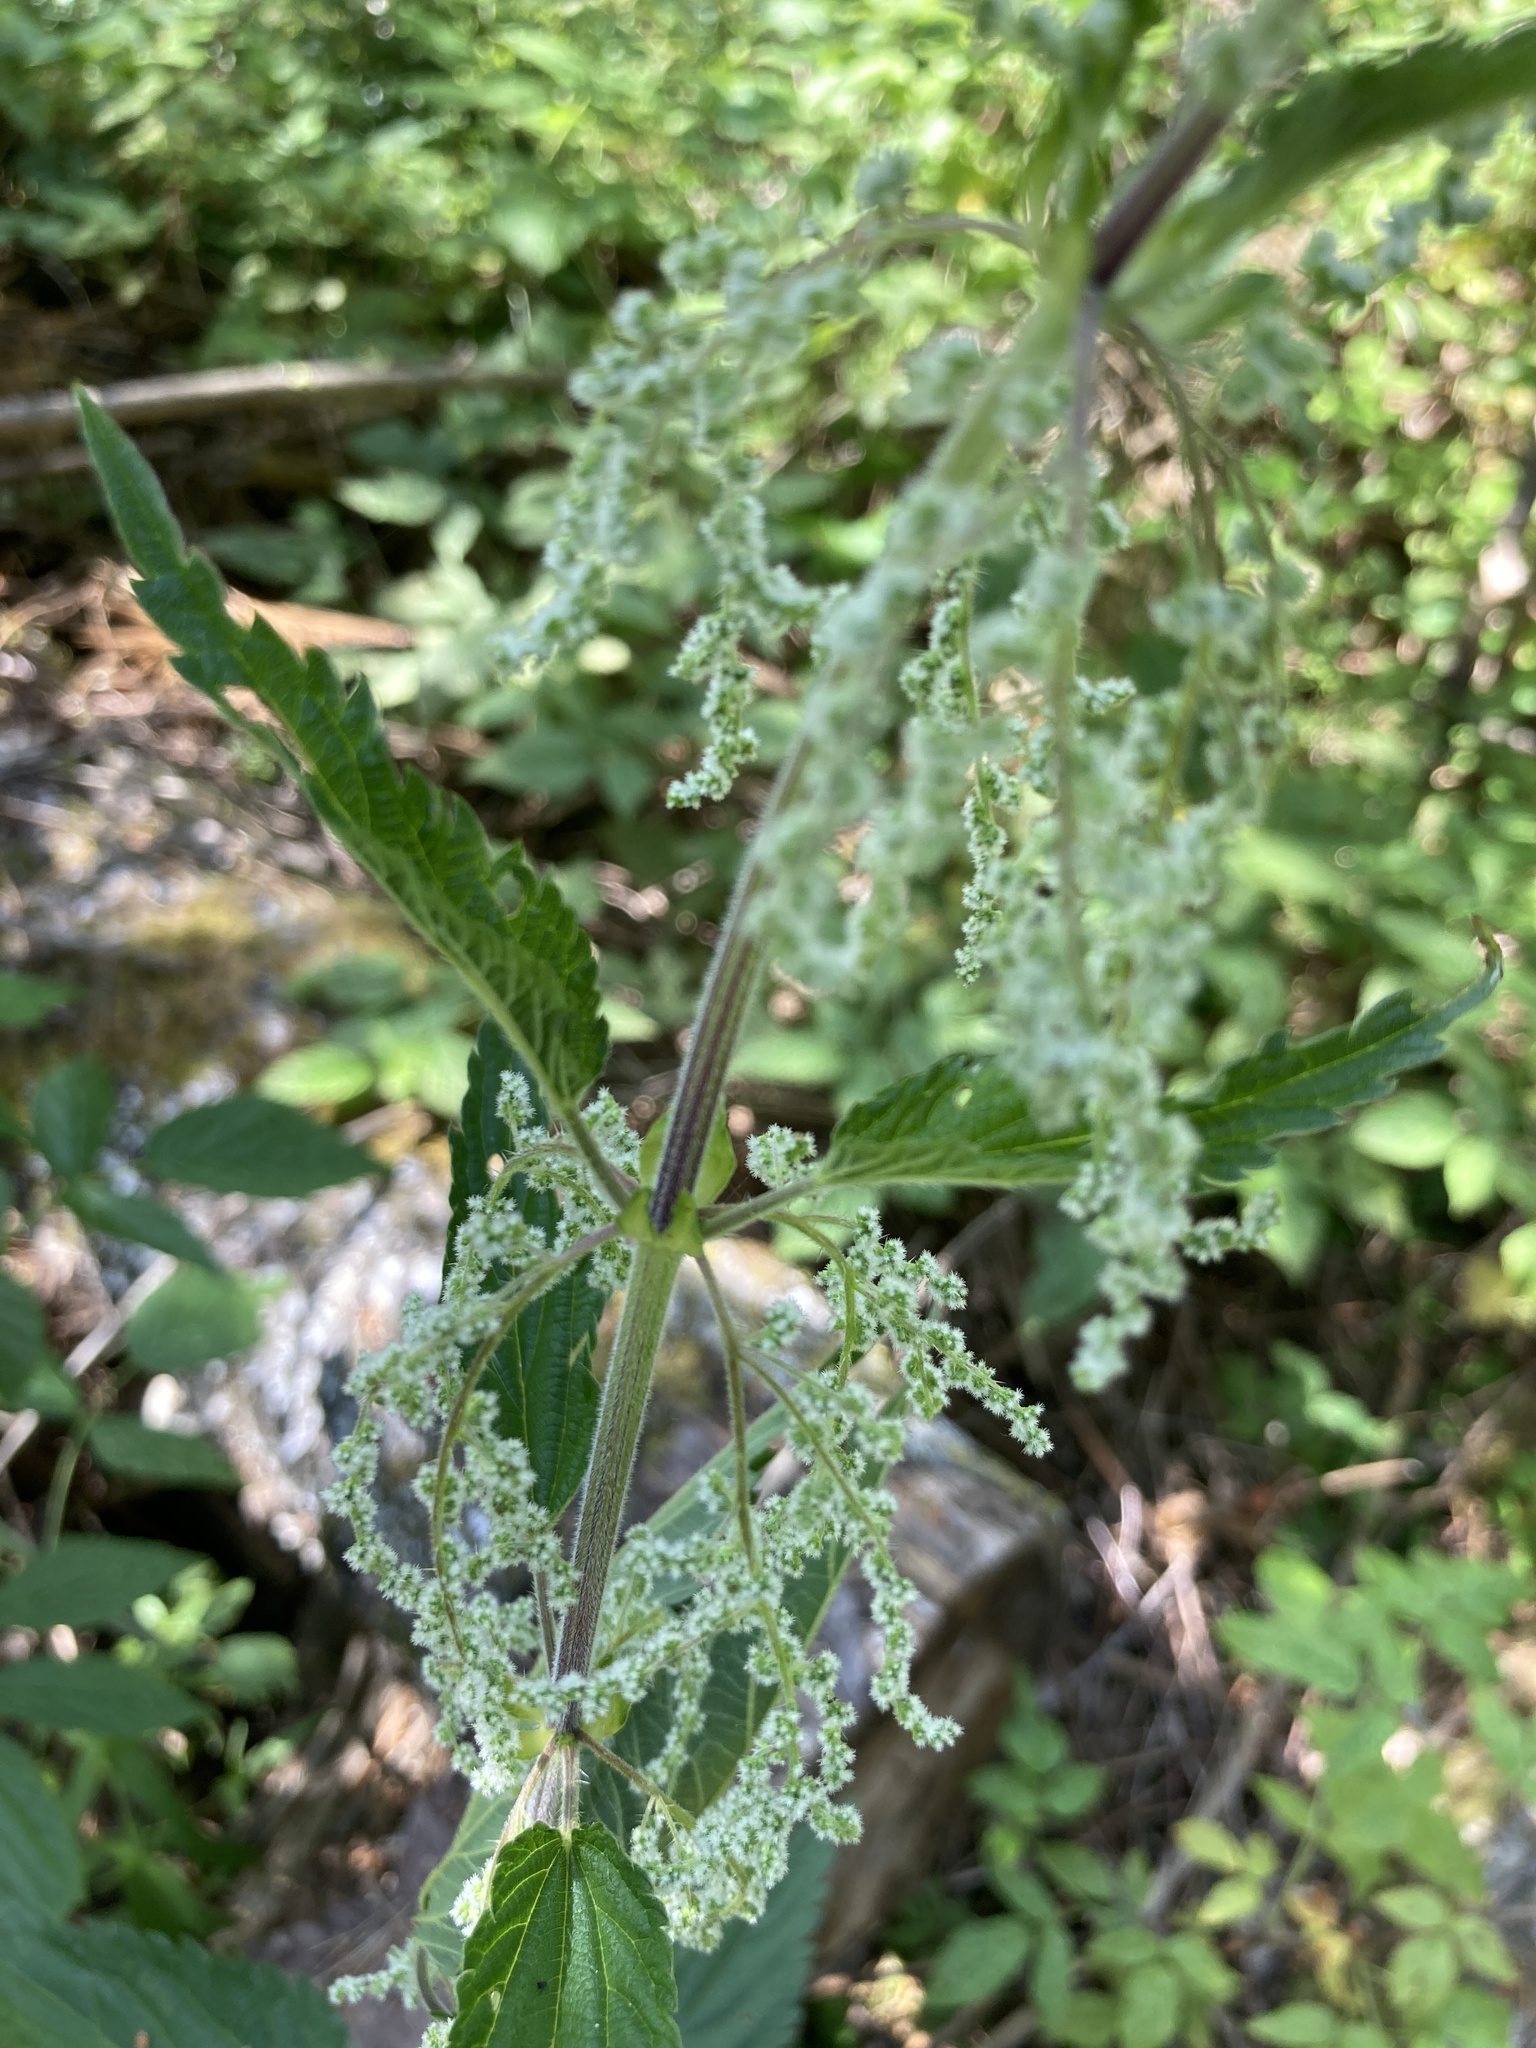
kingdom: Plantae
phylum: Tracheophyta
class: Magnoliopsida
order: Rosales
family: Urticaceae
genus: Urtica
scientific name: Urtica dioica
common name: Common nettle
